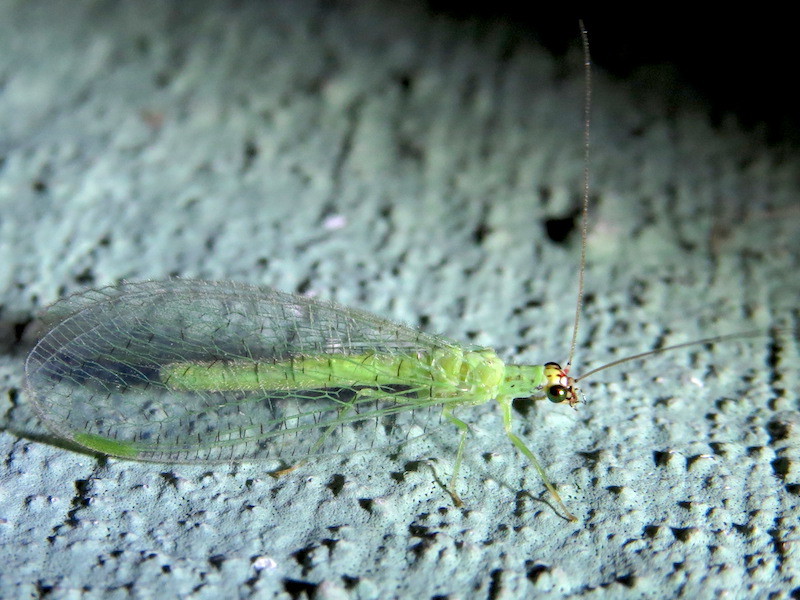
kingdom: Animalia
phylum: Arthropoda
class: Insecta
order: Neuroptera
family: Chrysopidae
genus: Chrysopa
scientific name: Chrysopa oculata
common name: Golden-eyed lacewing
